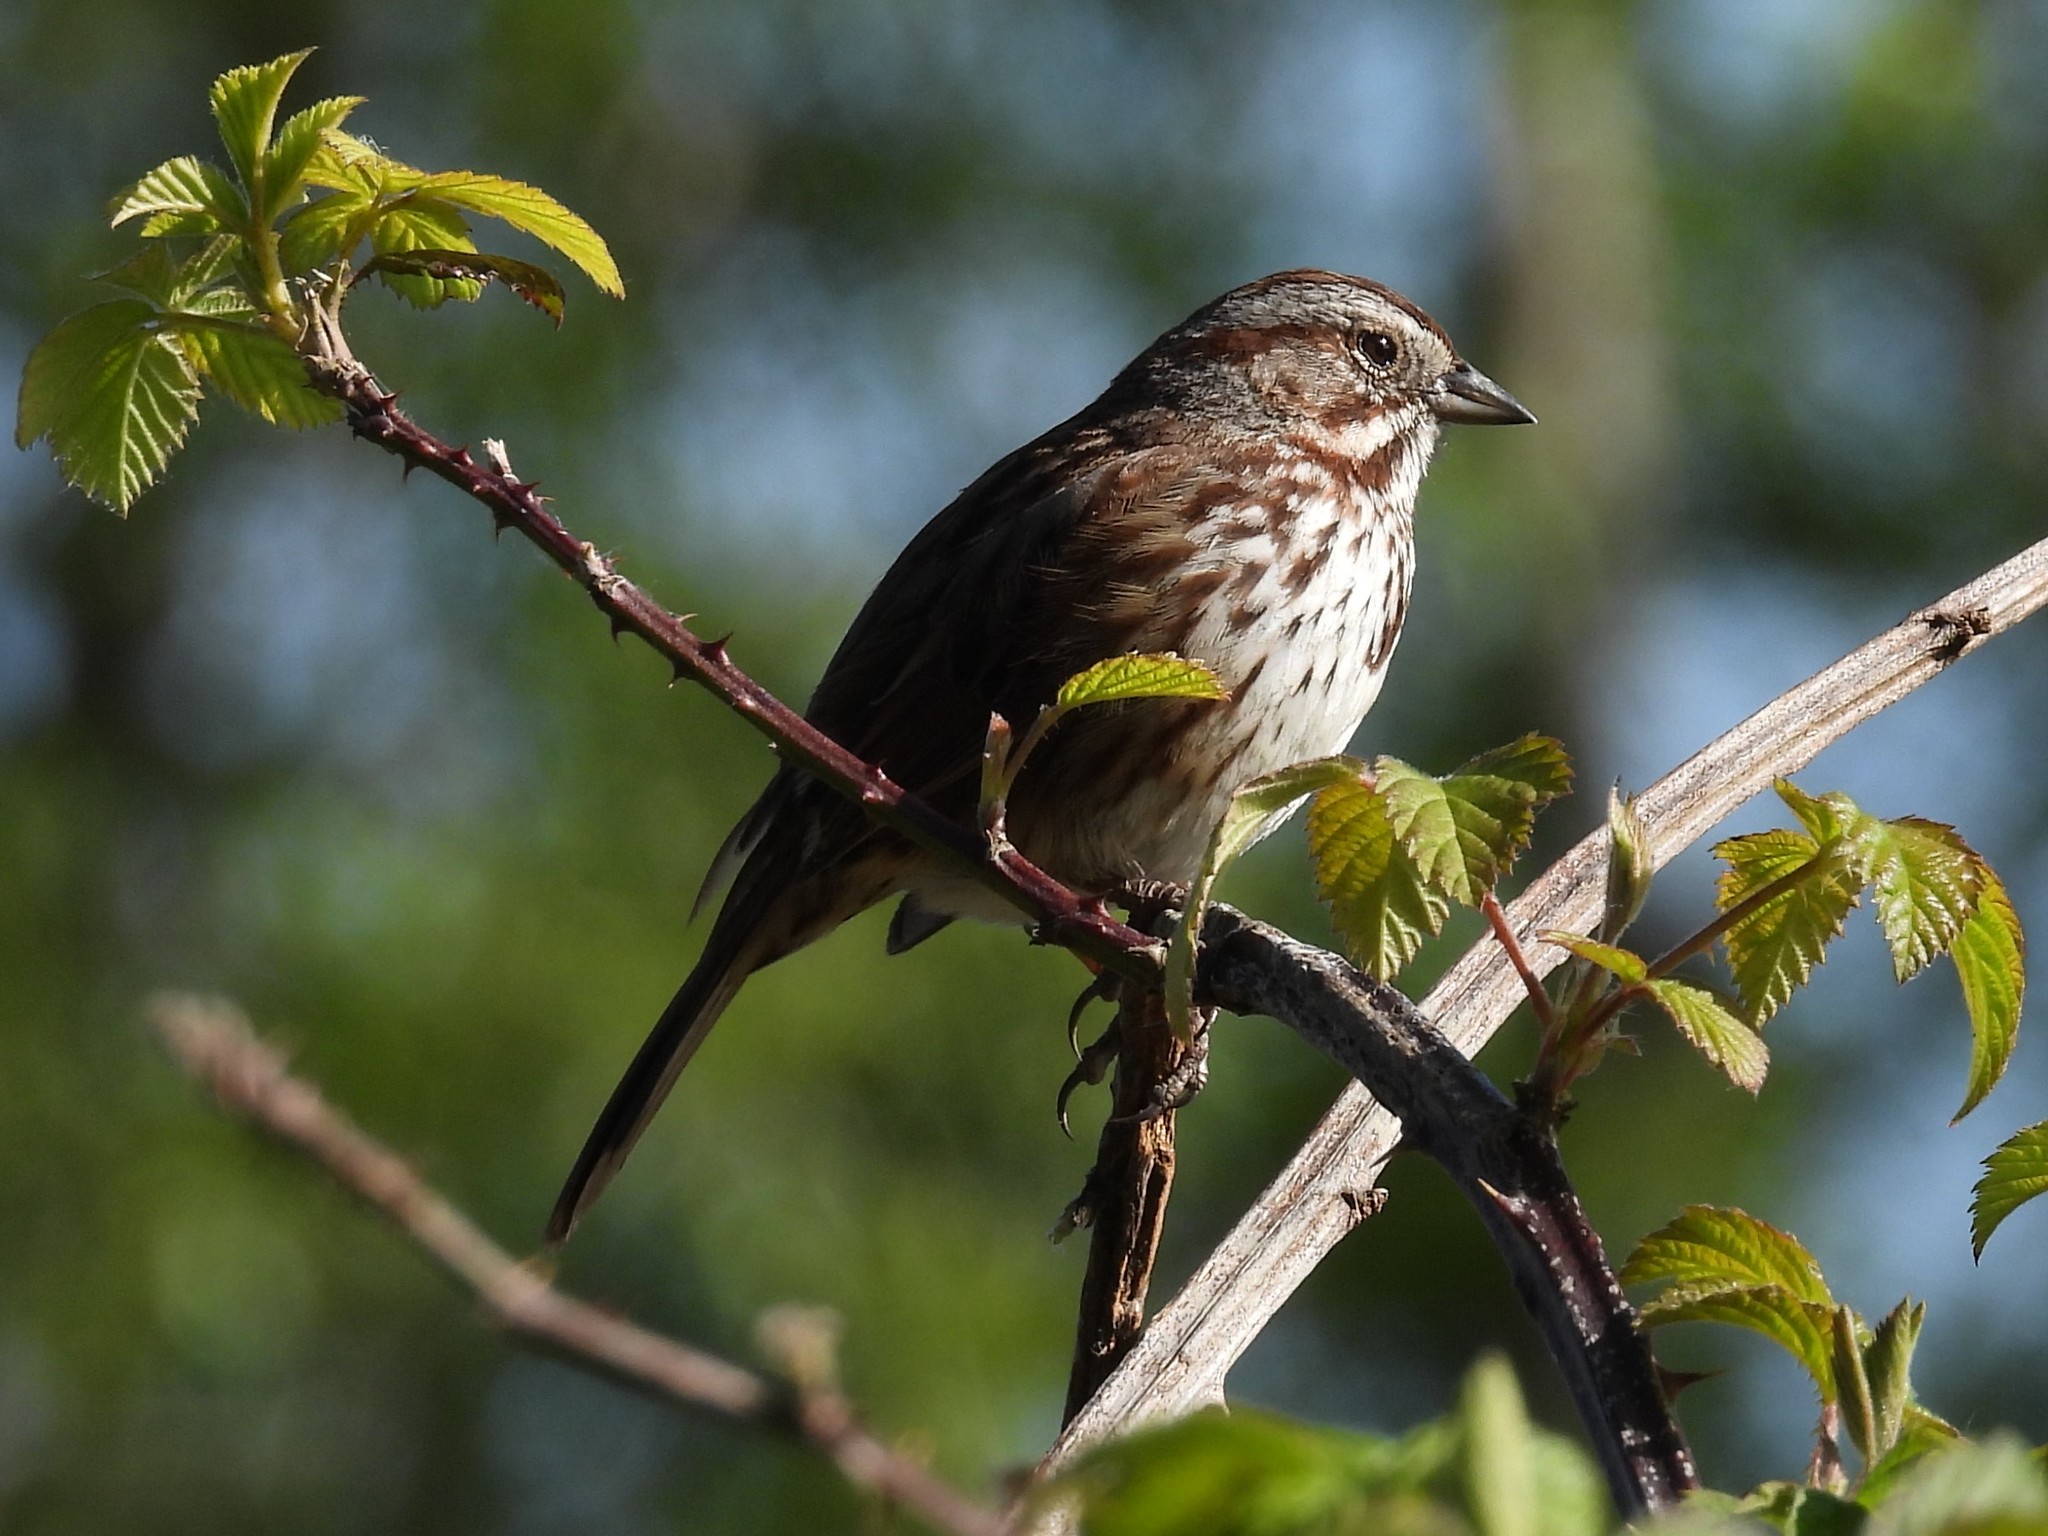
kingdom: Animalia
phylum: Chordata
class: Aves
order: Passeriformes
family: Passerellidae
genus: Melospiza
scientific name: Melospiza melodia
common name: Song sparrow
